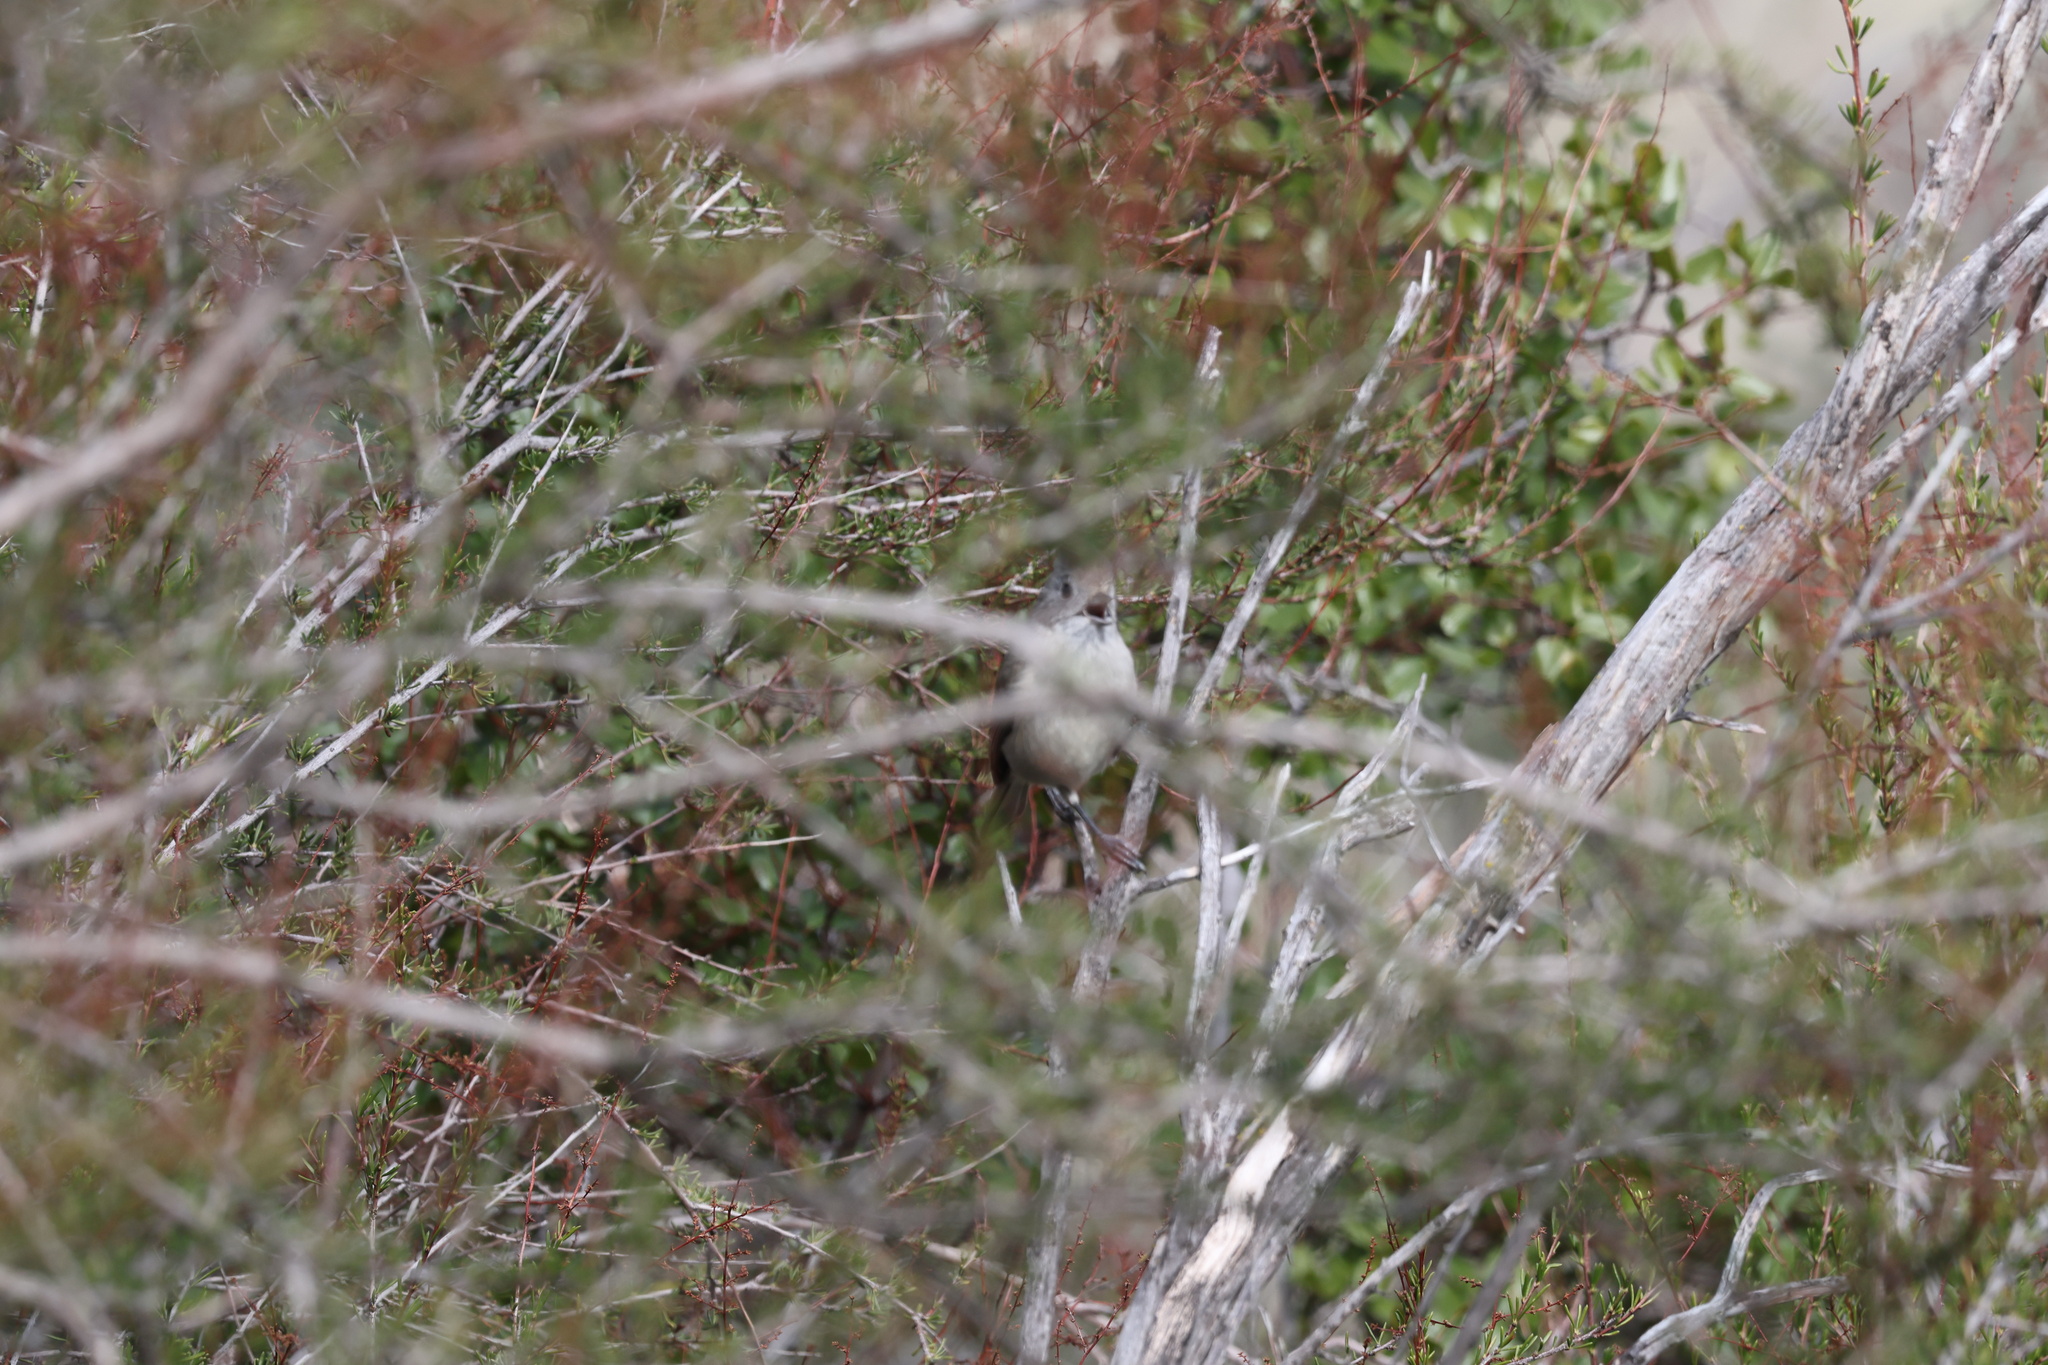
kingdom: Animalia
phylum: Chordata
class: Aves
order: Passeriformes
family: Paridae
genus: Baeolophus
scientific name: Baeolophus inornatus
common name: Oak titmouse
